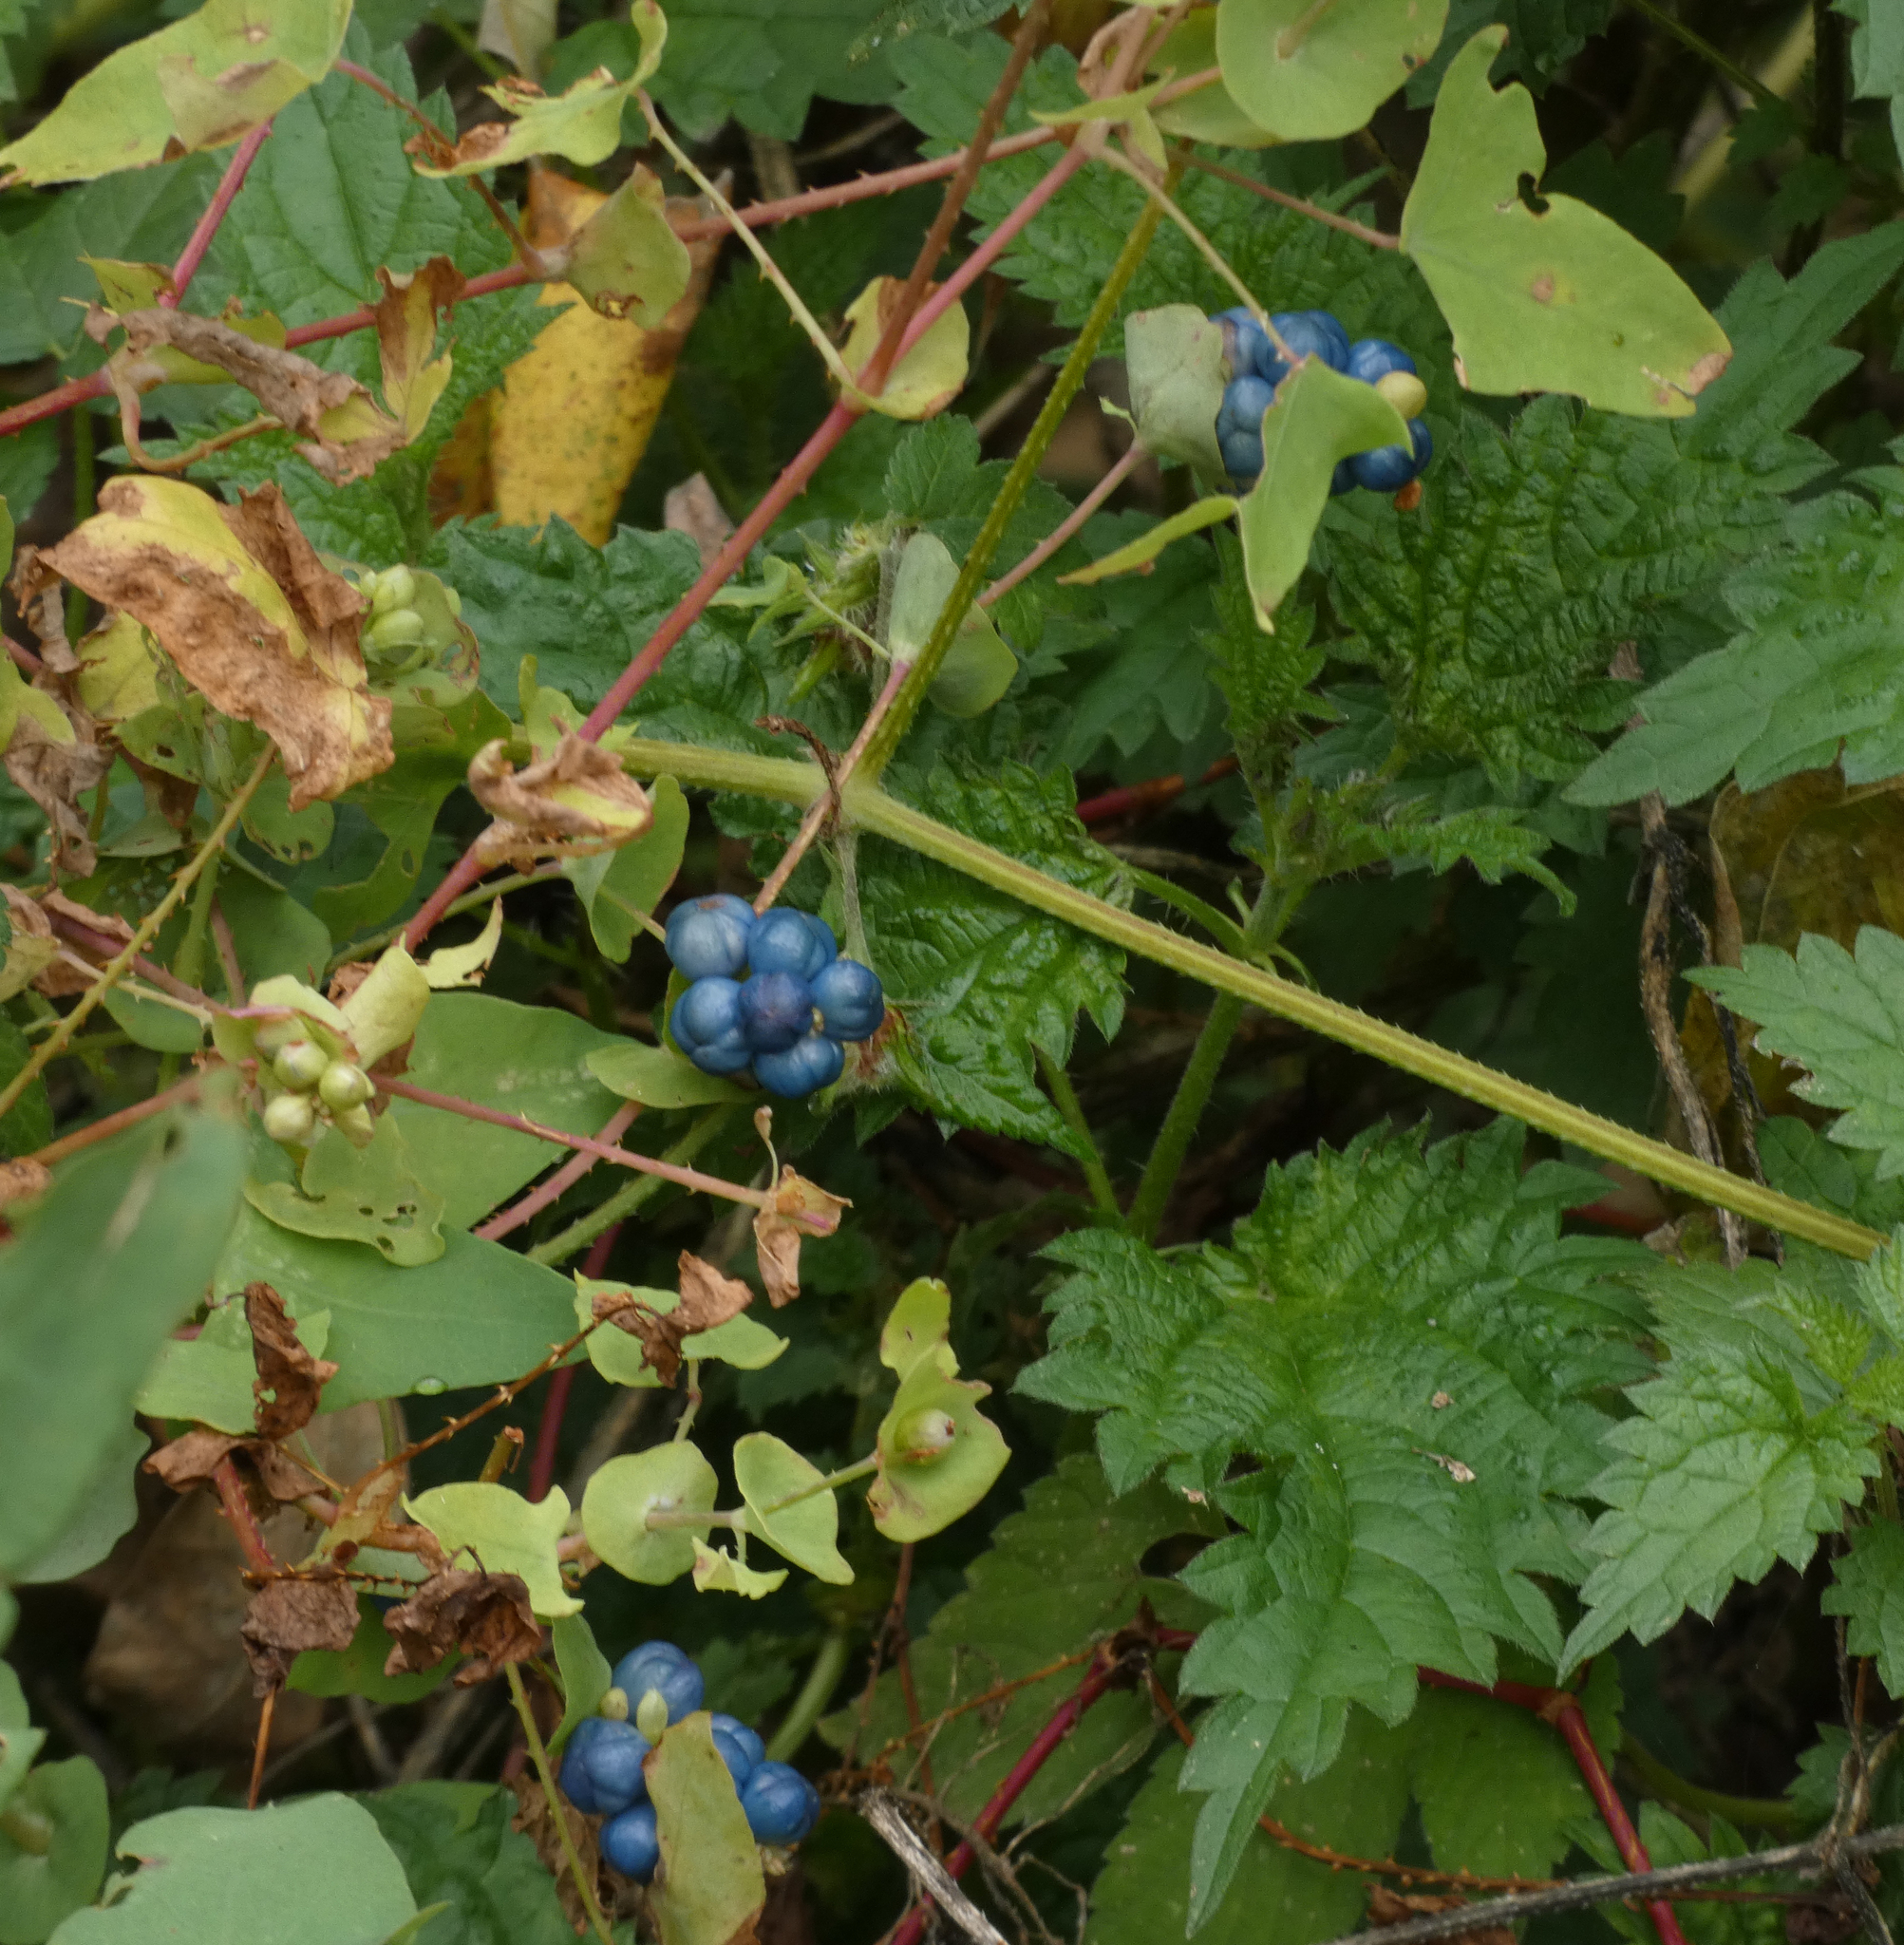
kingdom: Plantae
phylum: Tracheophyta
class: Magnoliopsida
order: Caryophyllales
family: Polygonaceae
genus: Persicaria
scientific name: Persicaria perfoliata
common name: Asiatic tearthumb
